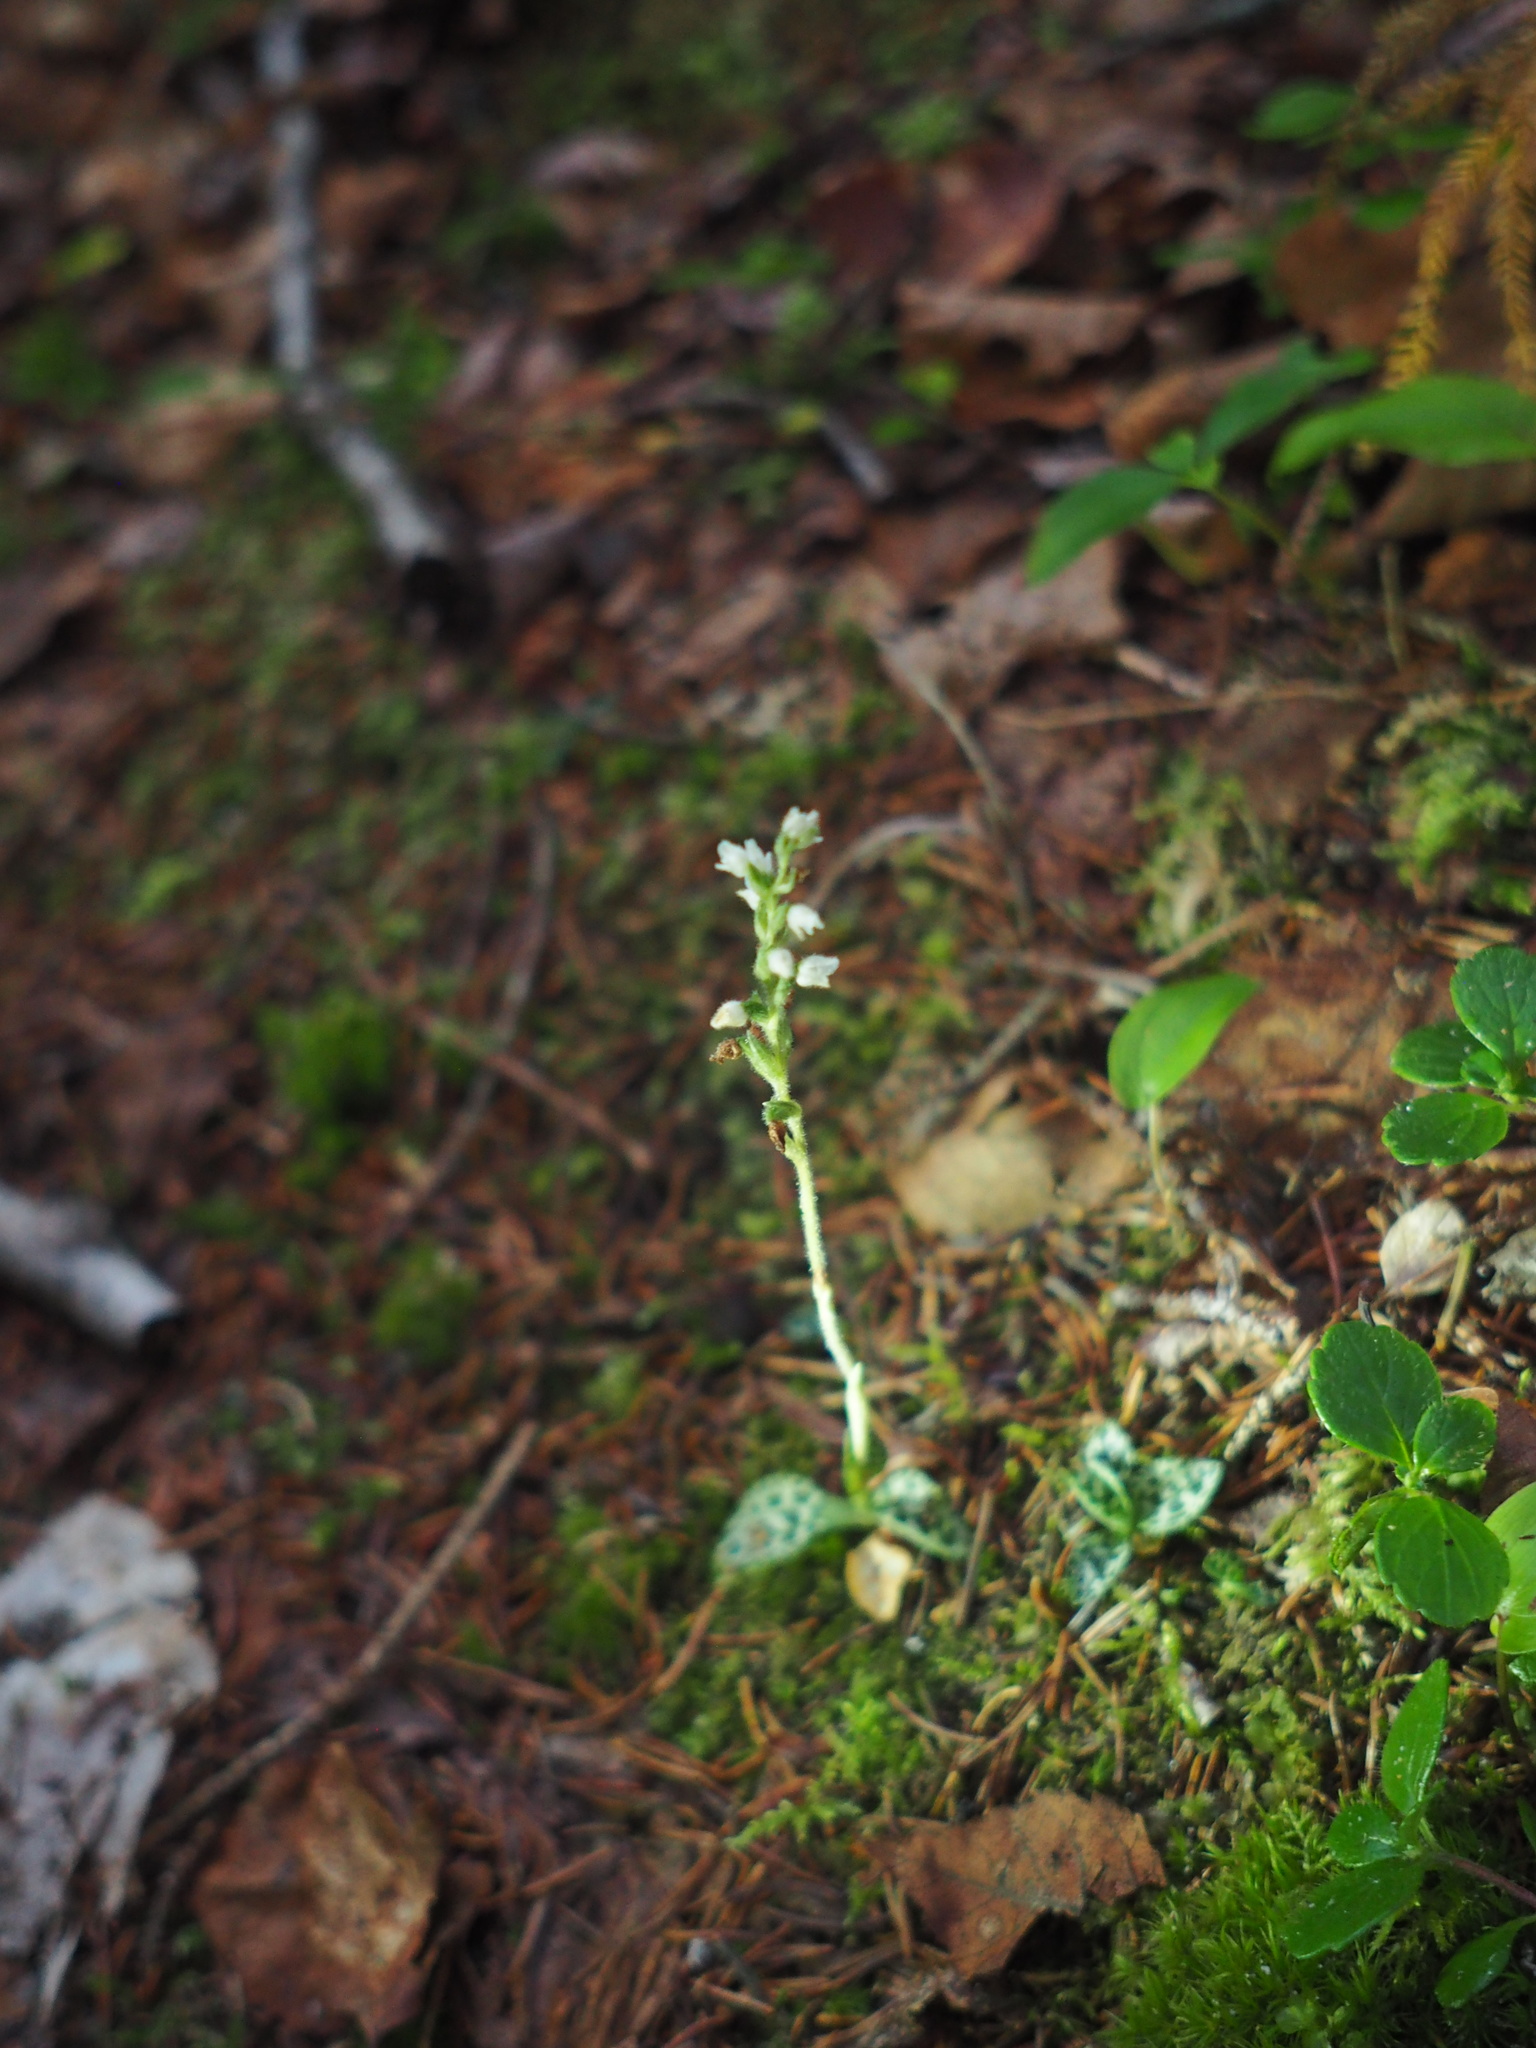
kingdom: Plantae
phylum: Tracheophyta
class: Liliopsida
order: Asparagales
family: Orchidaceae
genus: Goodyera
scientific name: Goodyera repens
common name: Creeping lady's-tresses
